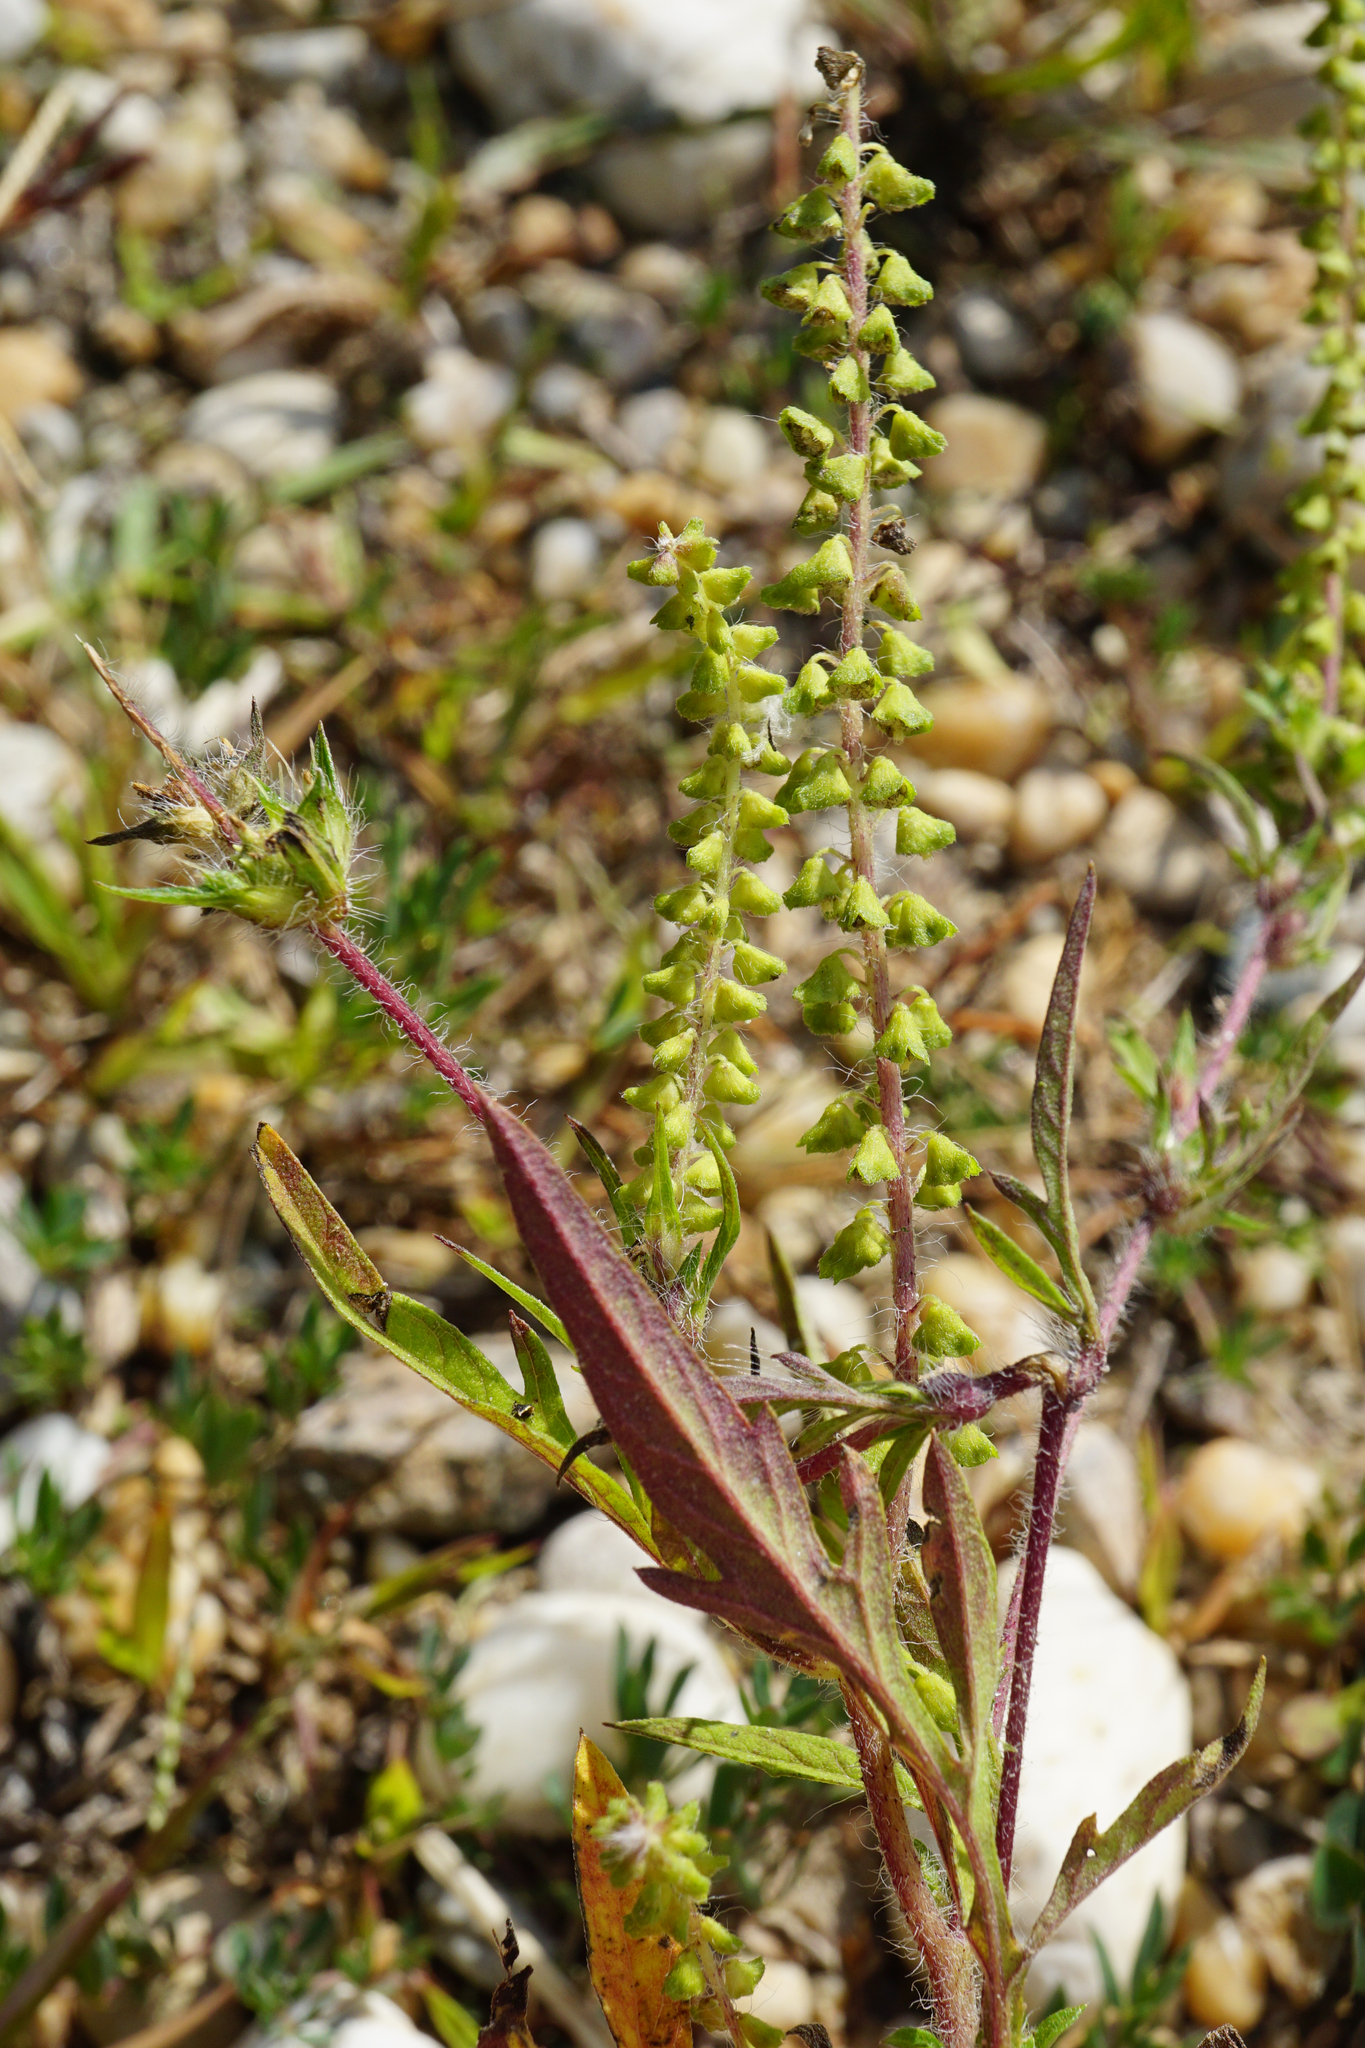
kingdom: Plantae
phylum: Tracheophyta
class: Magnoliopsida
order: Asterales
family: Asteraceae
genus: Ambrosia
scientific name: Ambrosia artemisiifolia
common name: Annual ragweed
